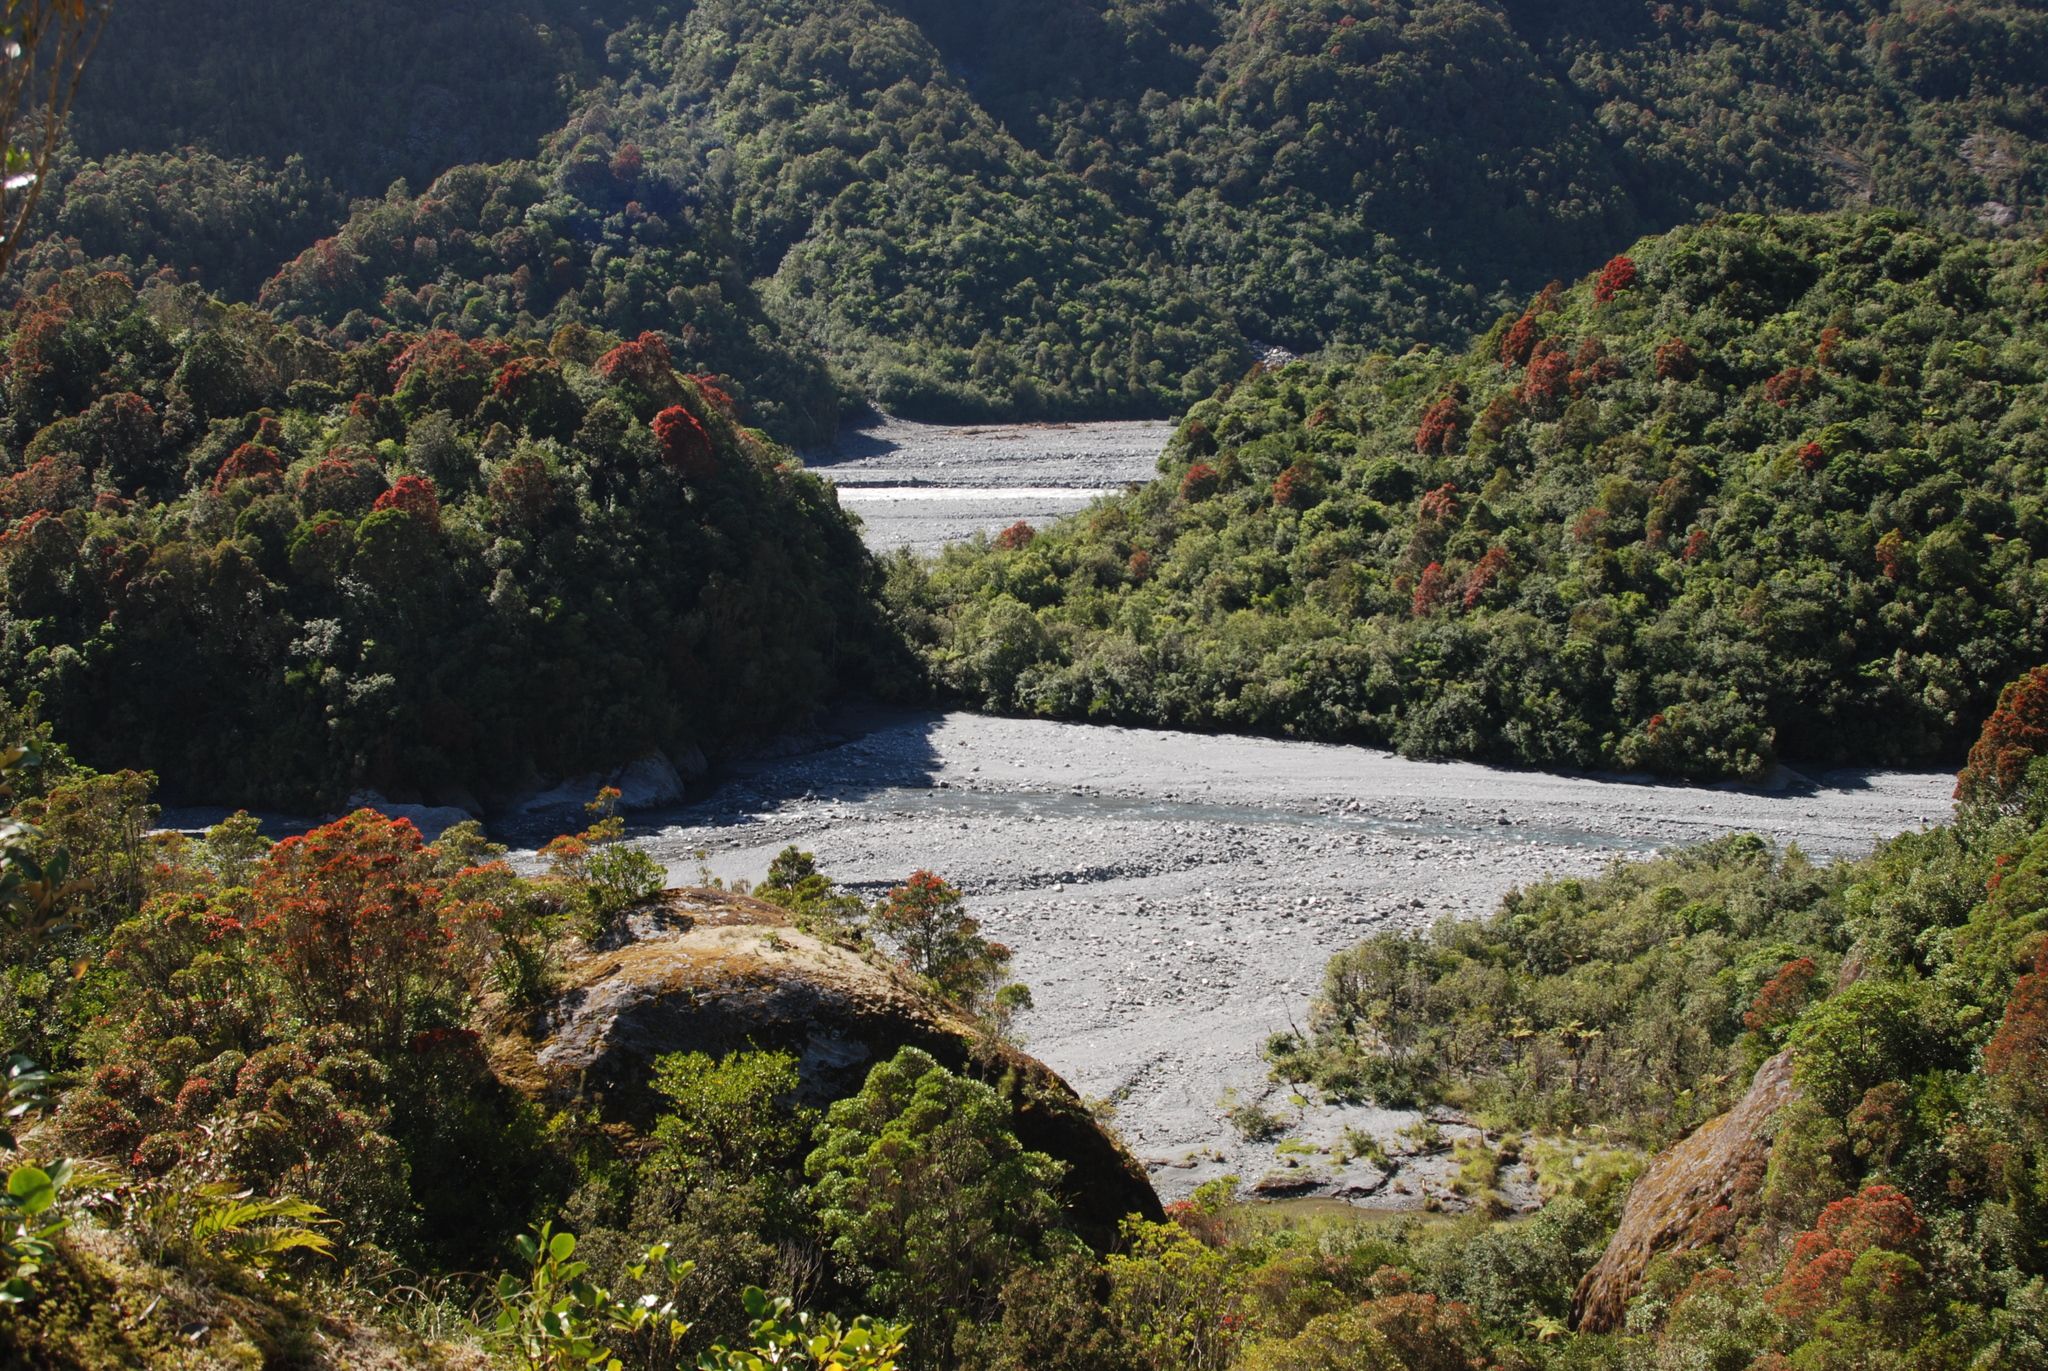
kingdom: Plantae
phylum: Tracheophyta
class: Magnoliopsida
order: Myrtales
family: Myrtaceae
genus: Metrosideros
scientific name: Metrosideros umbellata
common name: Southern rata
